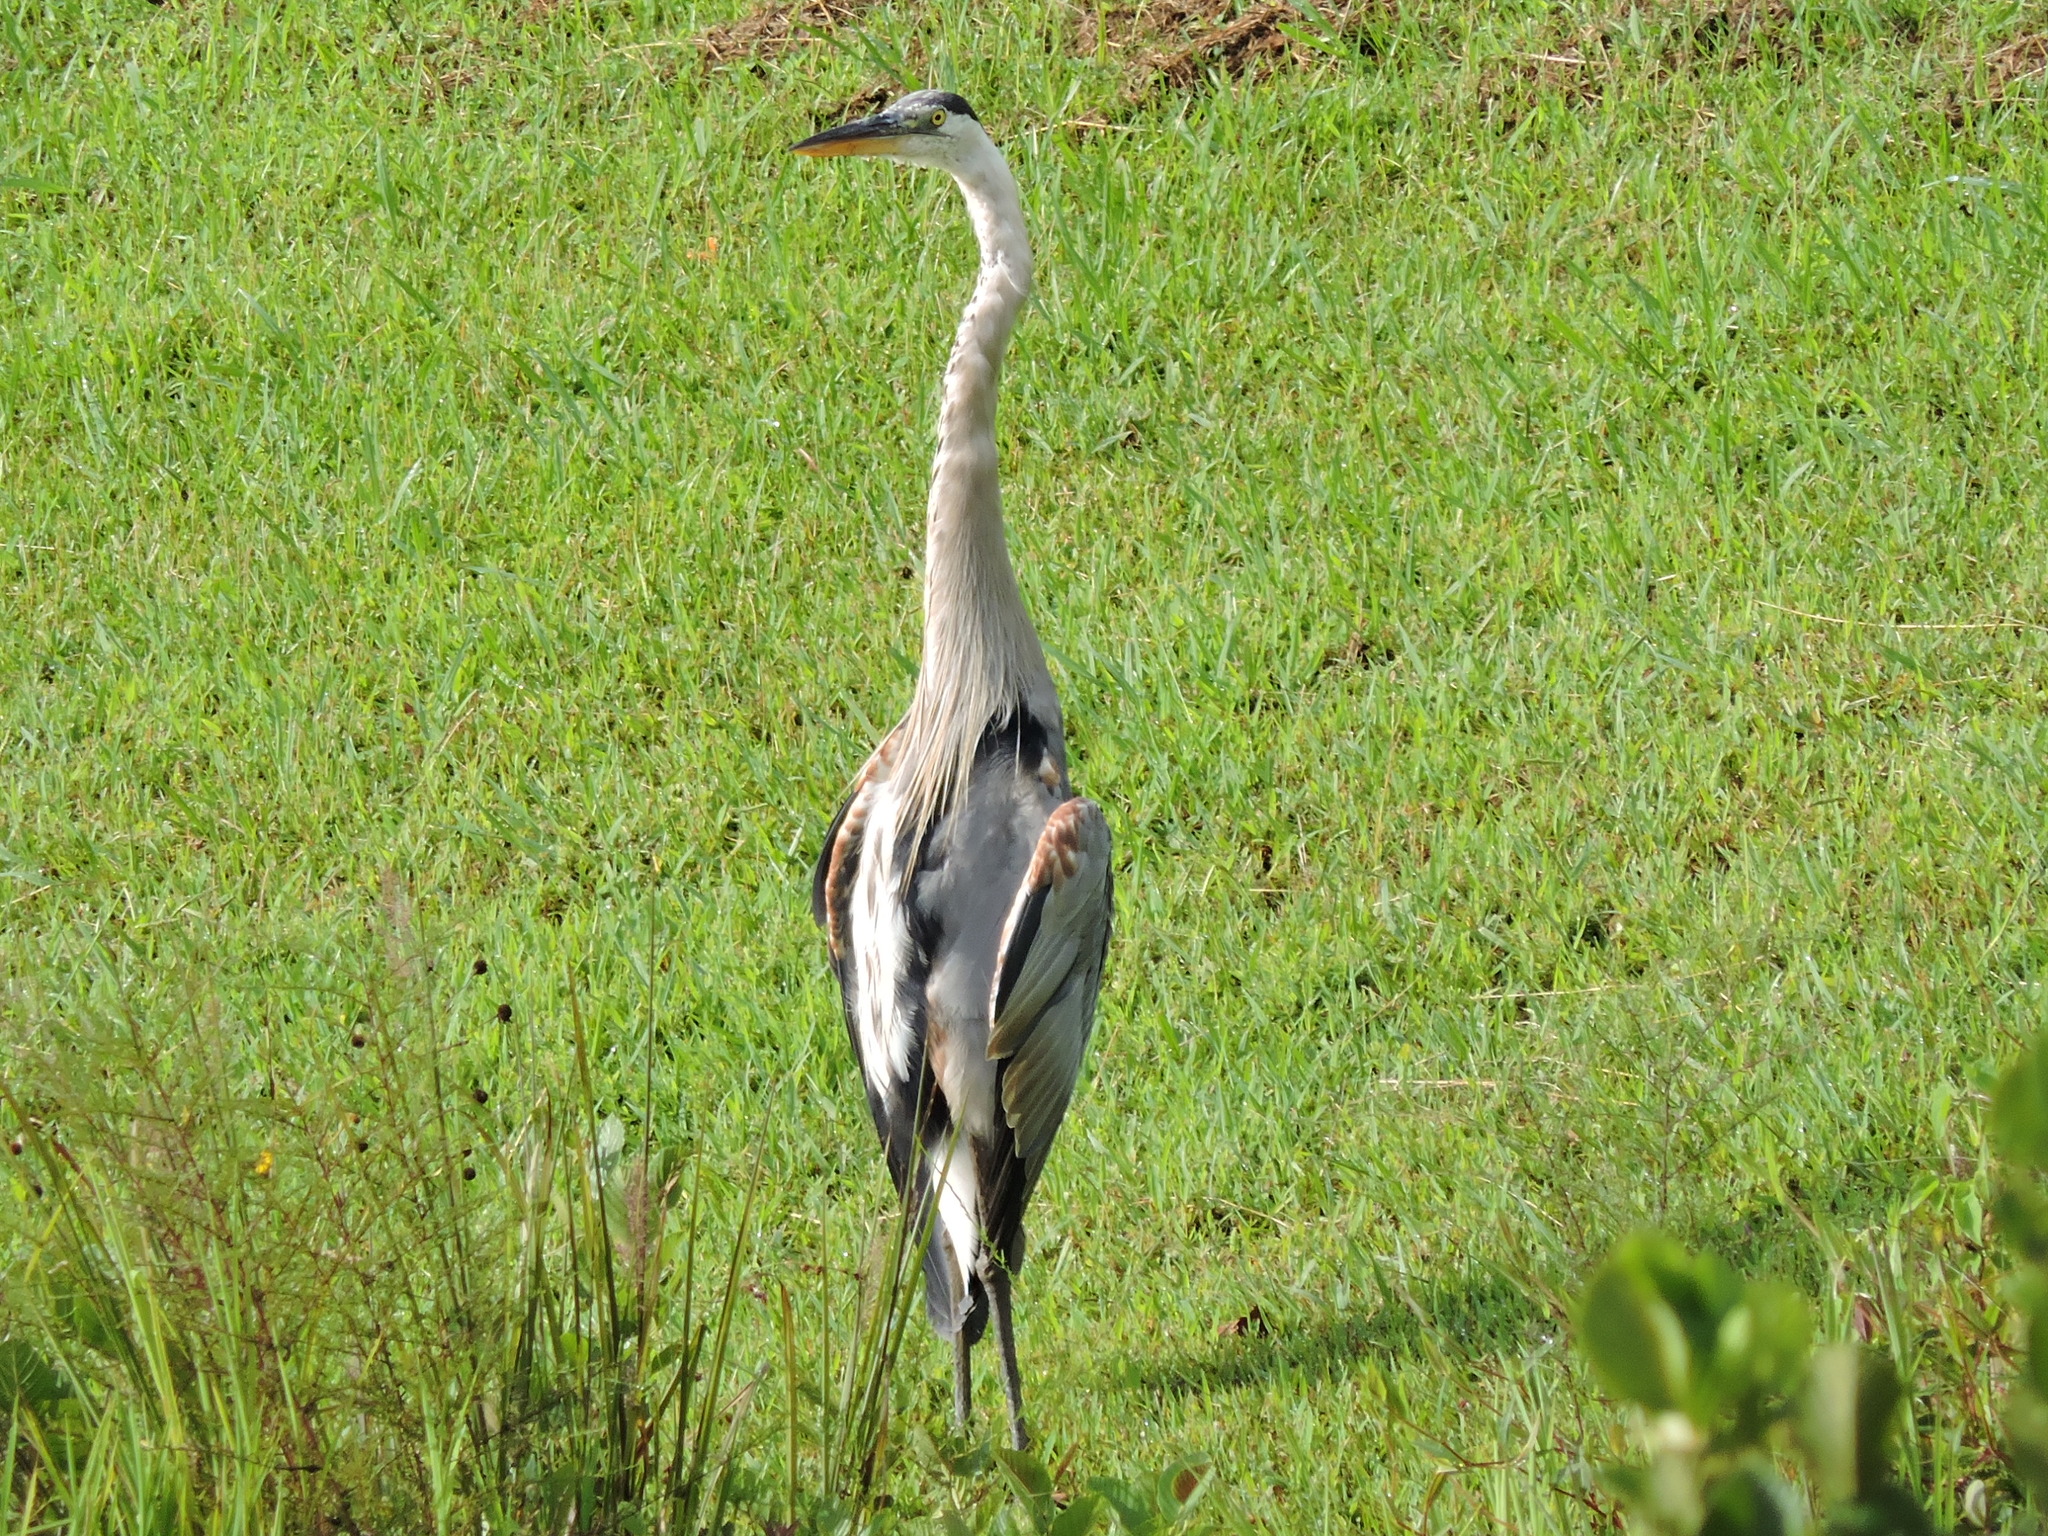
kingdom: Animalia
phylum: Chordata
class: Aves
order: Pelecaniformes
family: Ardeidae
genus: Ardea
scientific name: Ardea herodias
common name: Great blue heron
